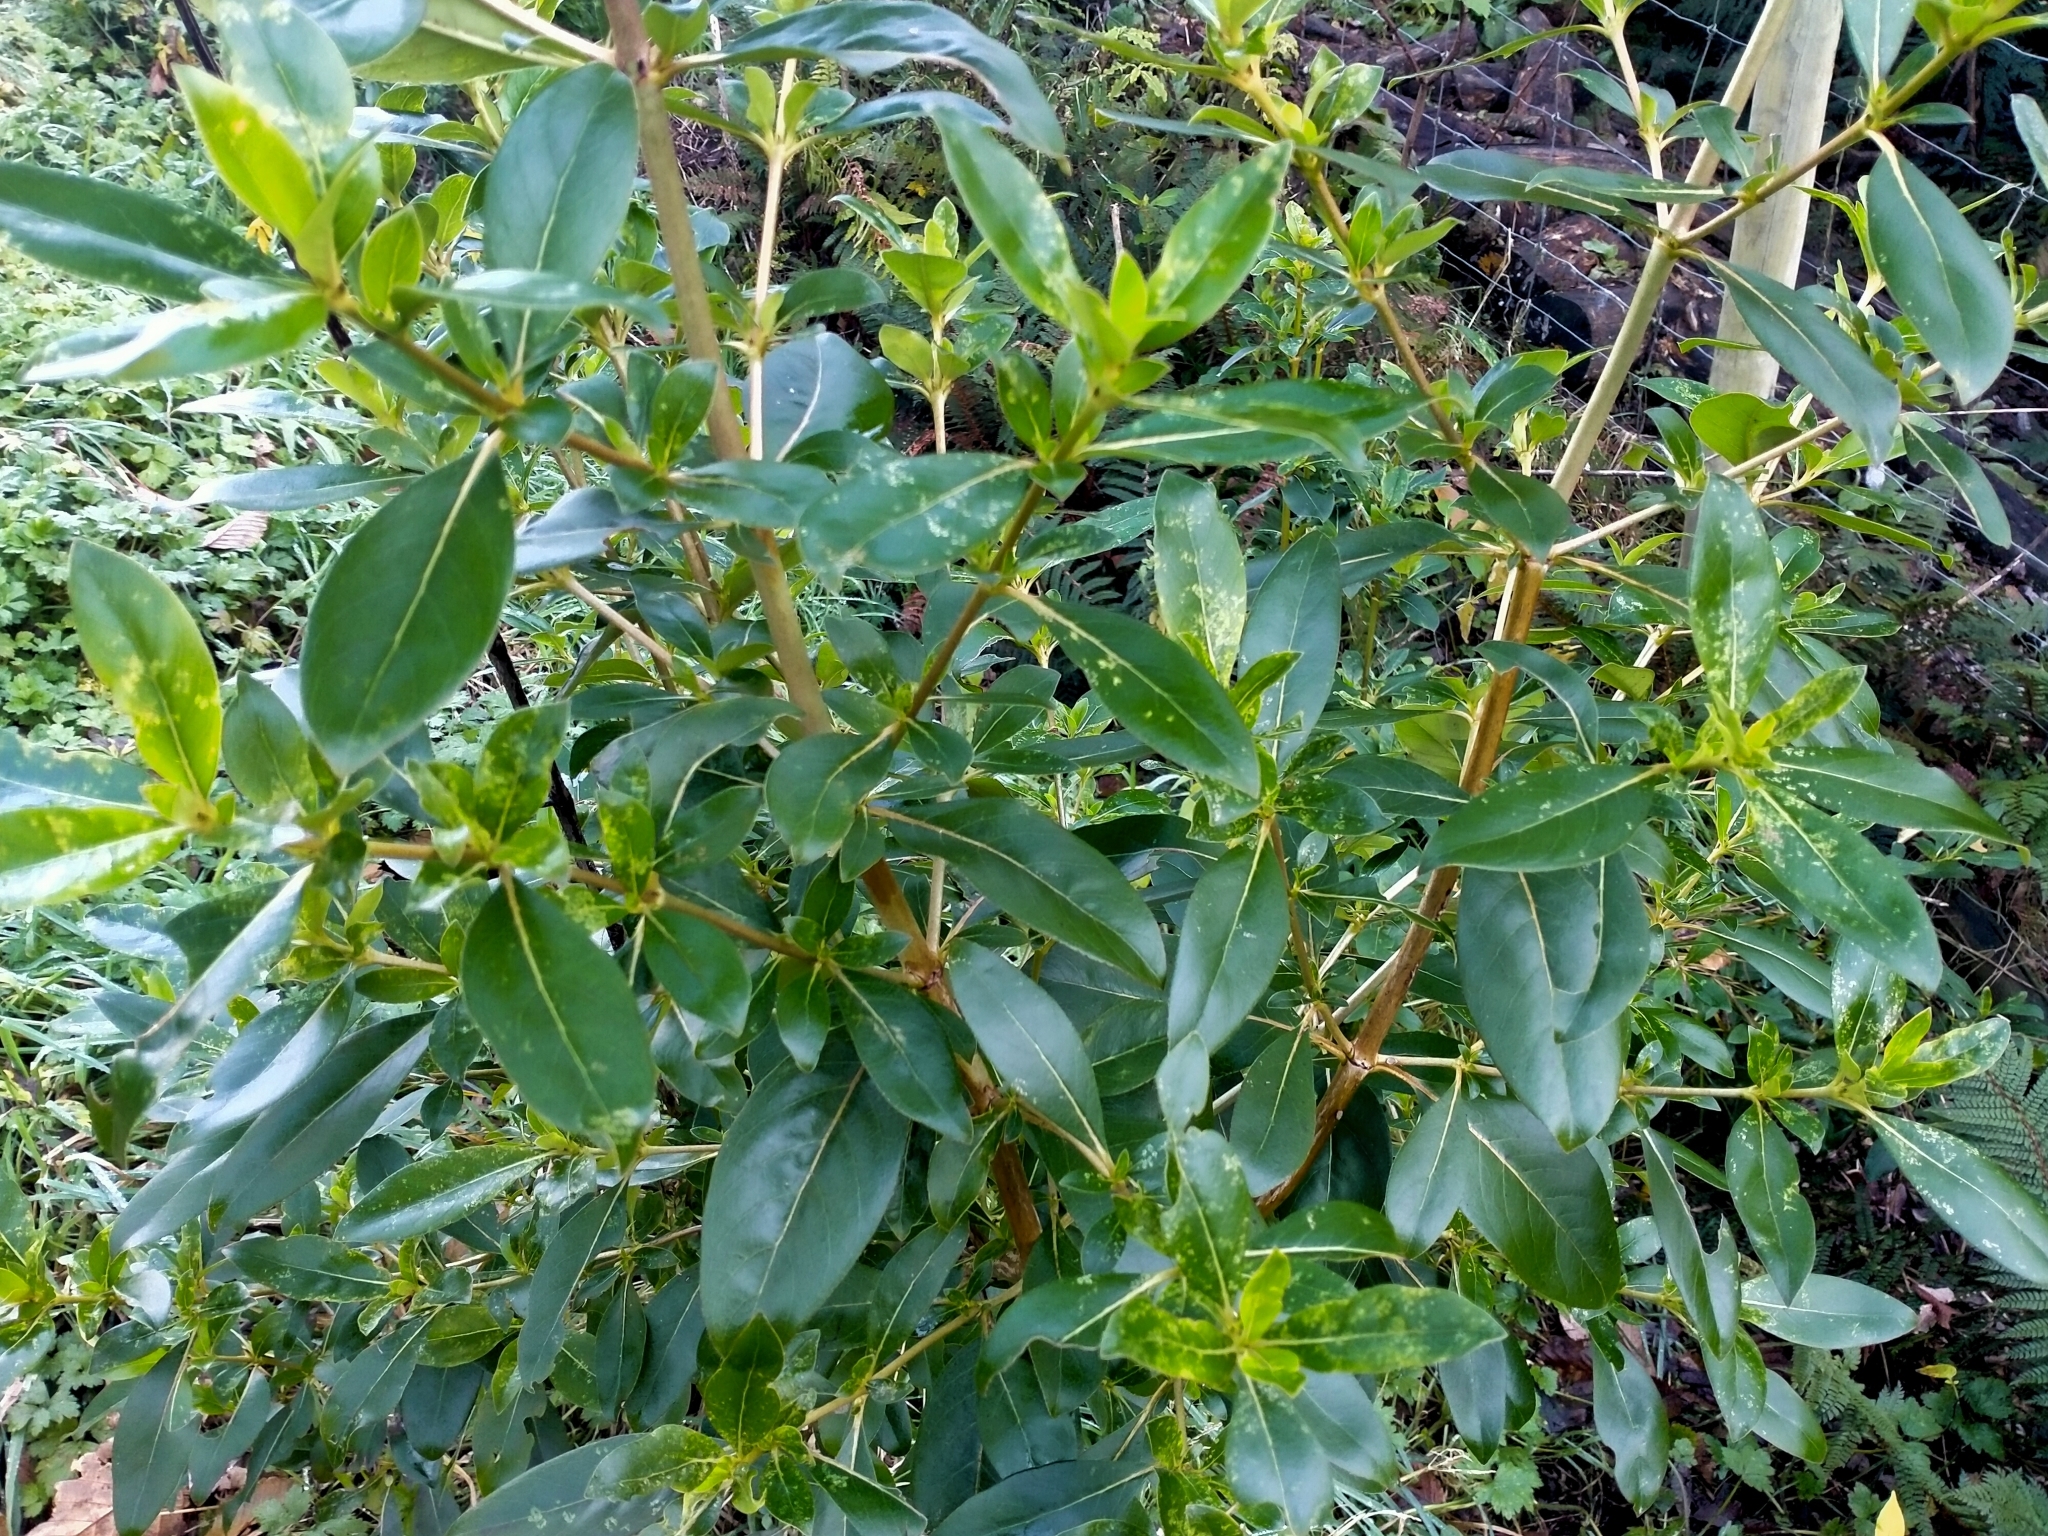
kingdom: Plantae
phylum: Tracheophyta
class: Magnoliopsida
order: Gentianales
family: Rubiaceae
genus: Coprosma
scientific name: Coprosma robusta
